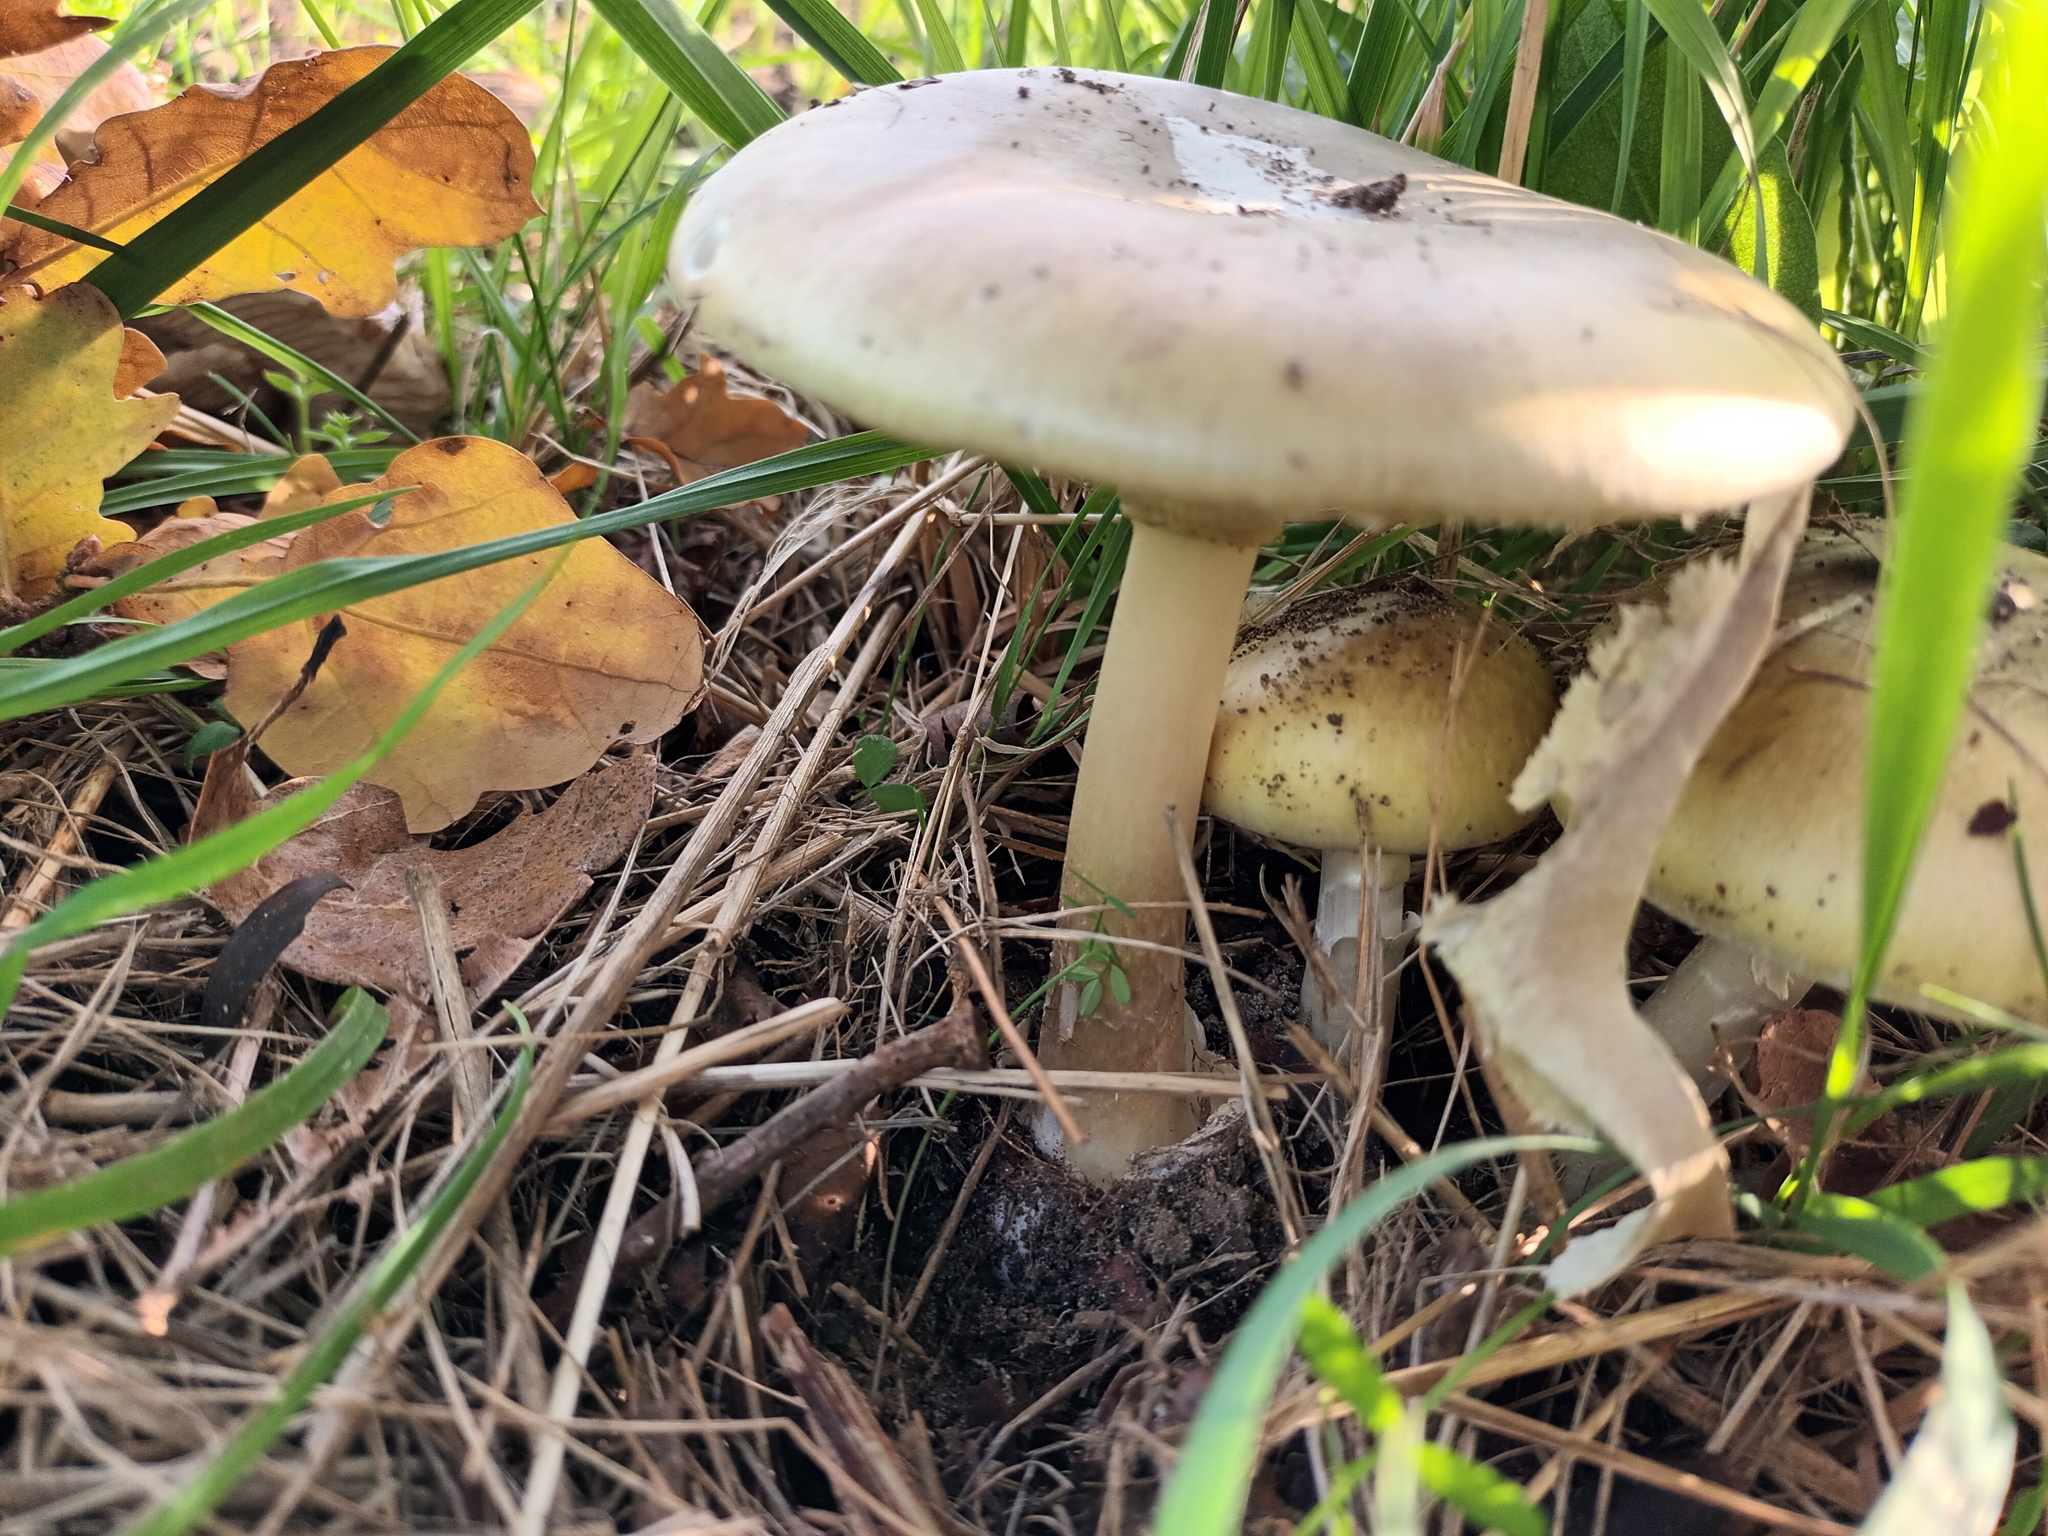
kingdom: Fungi
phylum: Basidiomycota
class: Agaricomycetes
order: Agaricales
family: Amanitaceae
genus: Amanita
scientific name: Amanita phalloides
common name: Death cap
